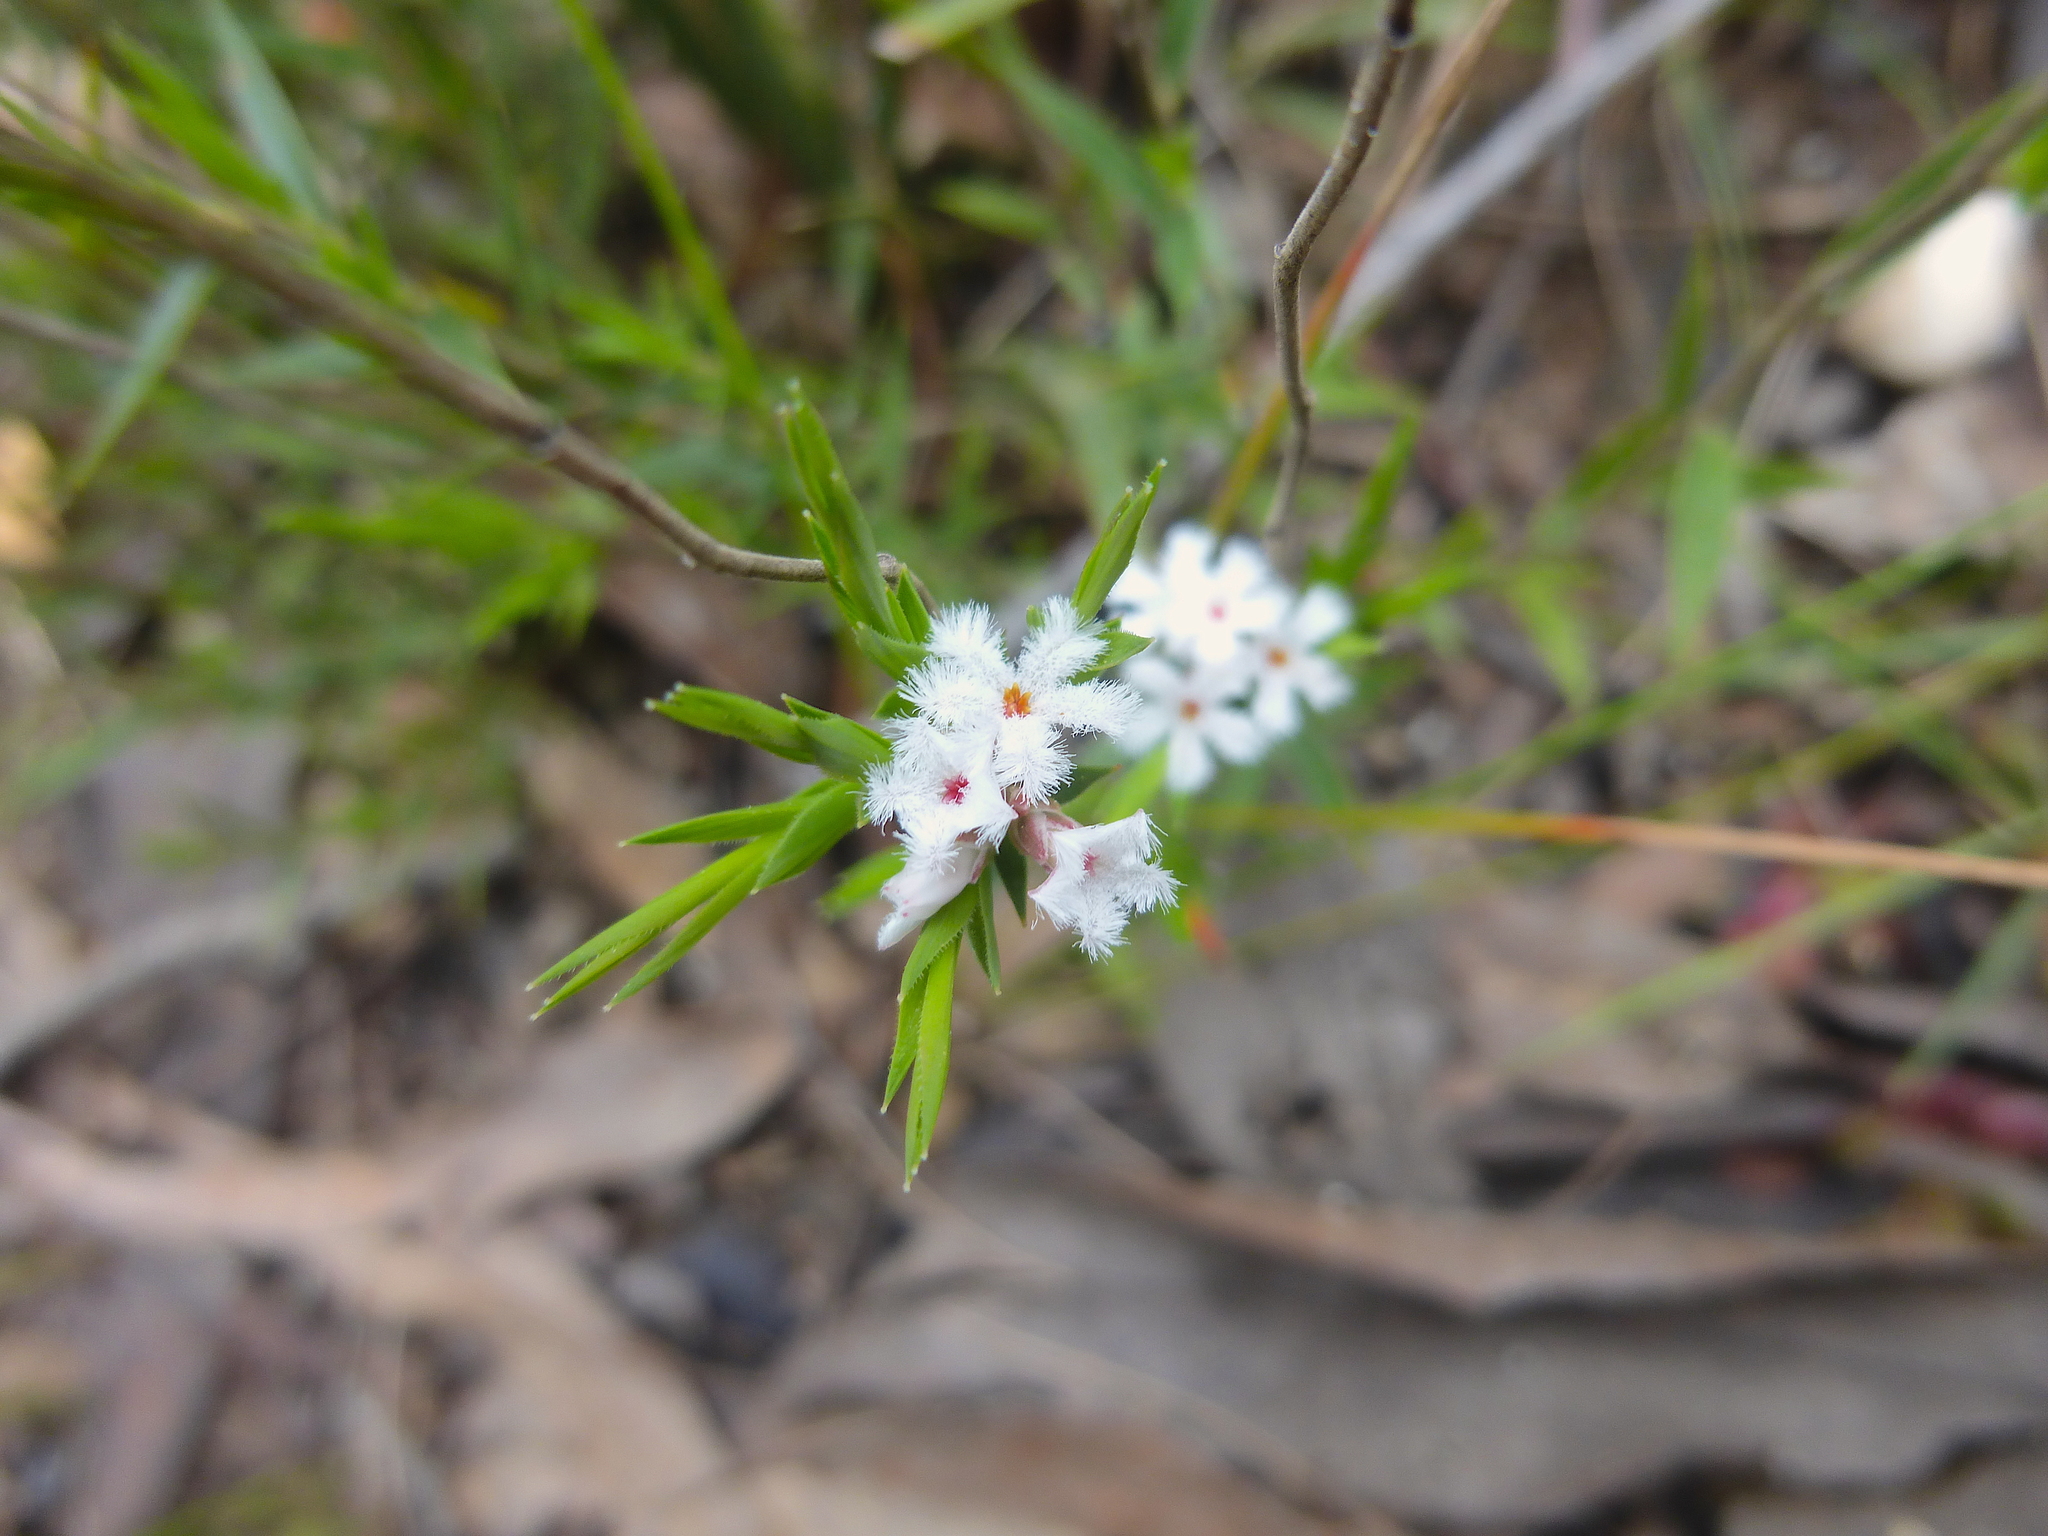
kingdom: Plantae
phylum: Tracheophyta
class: Magnoliopsida
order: Ericales
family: Ericaceae
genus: Leucopogon
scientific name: Leucopogon virgatus
